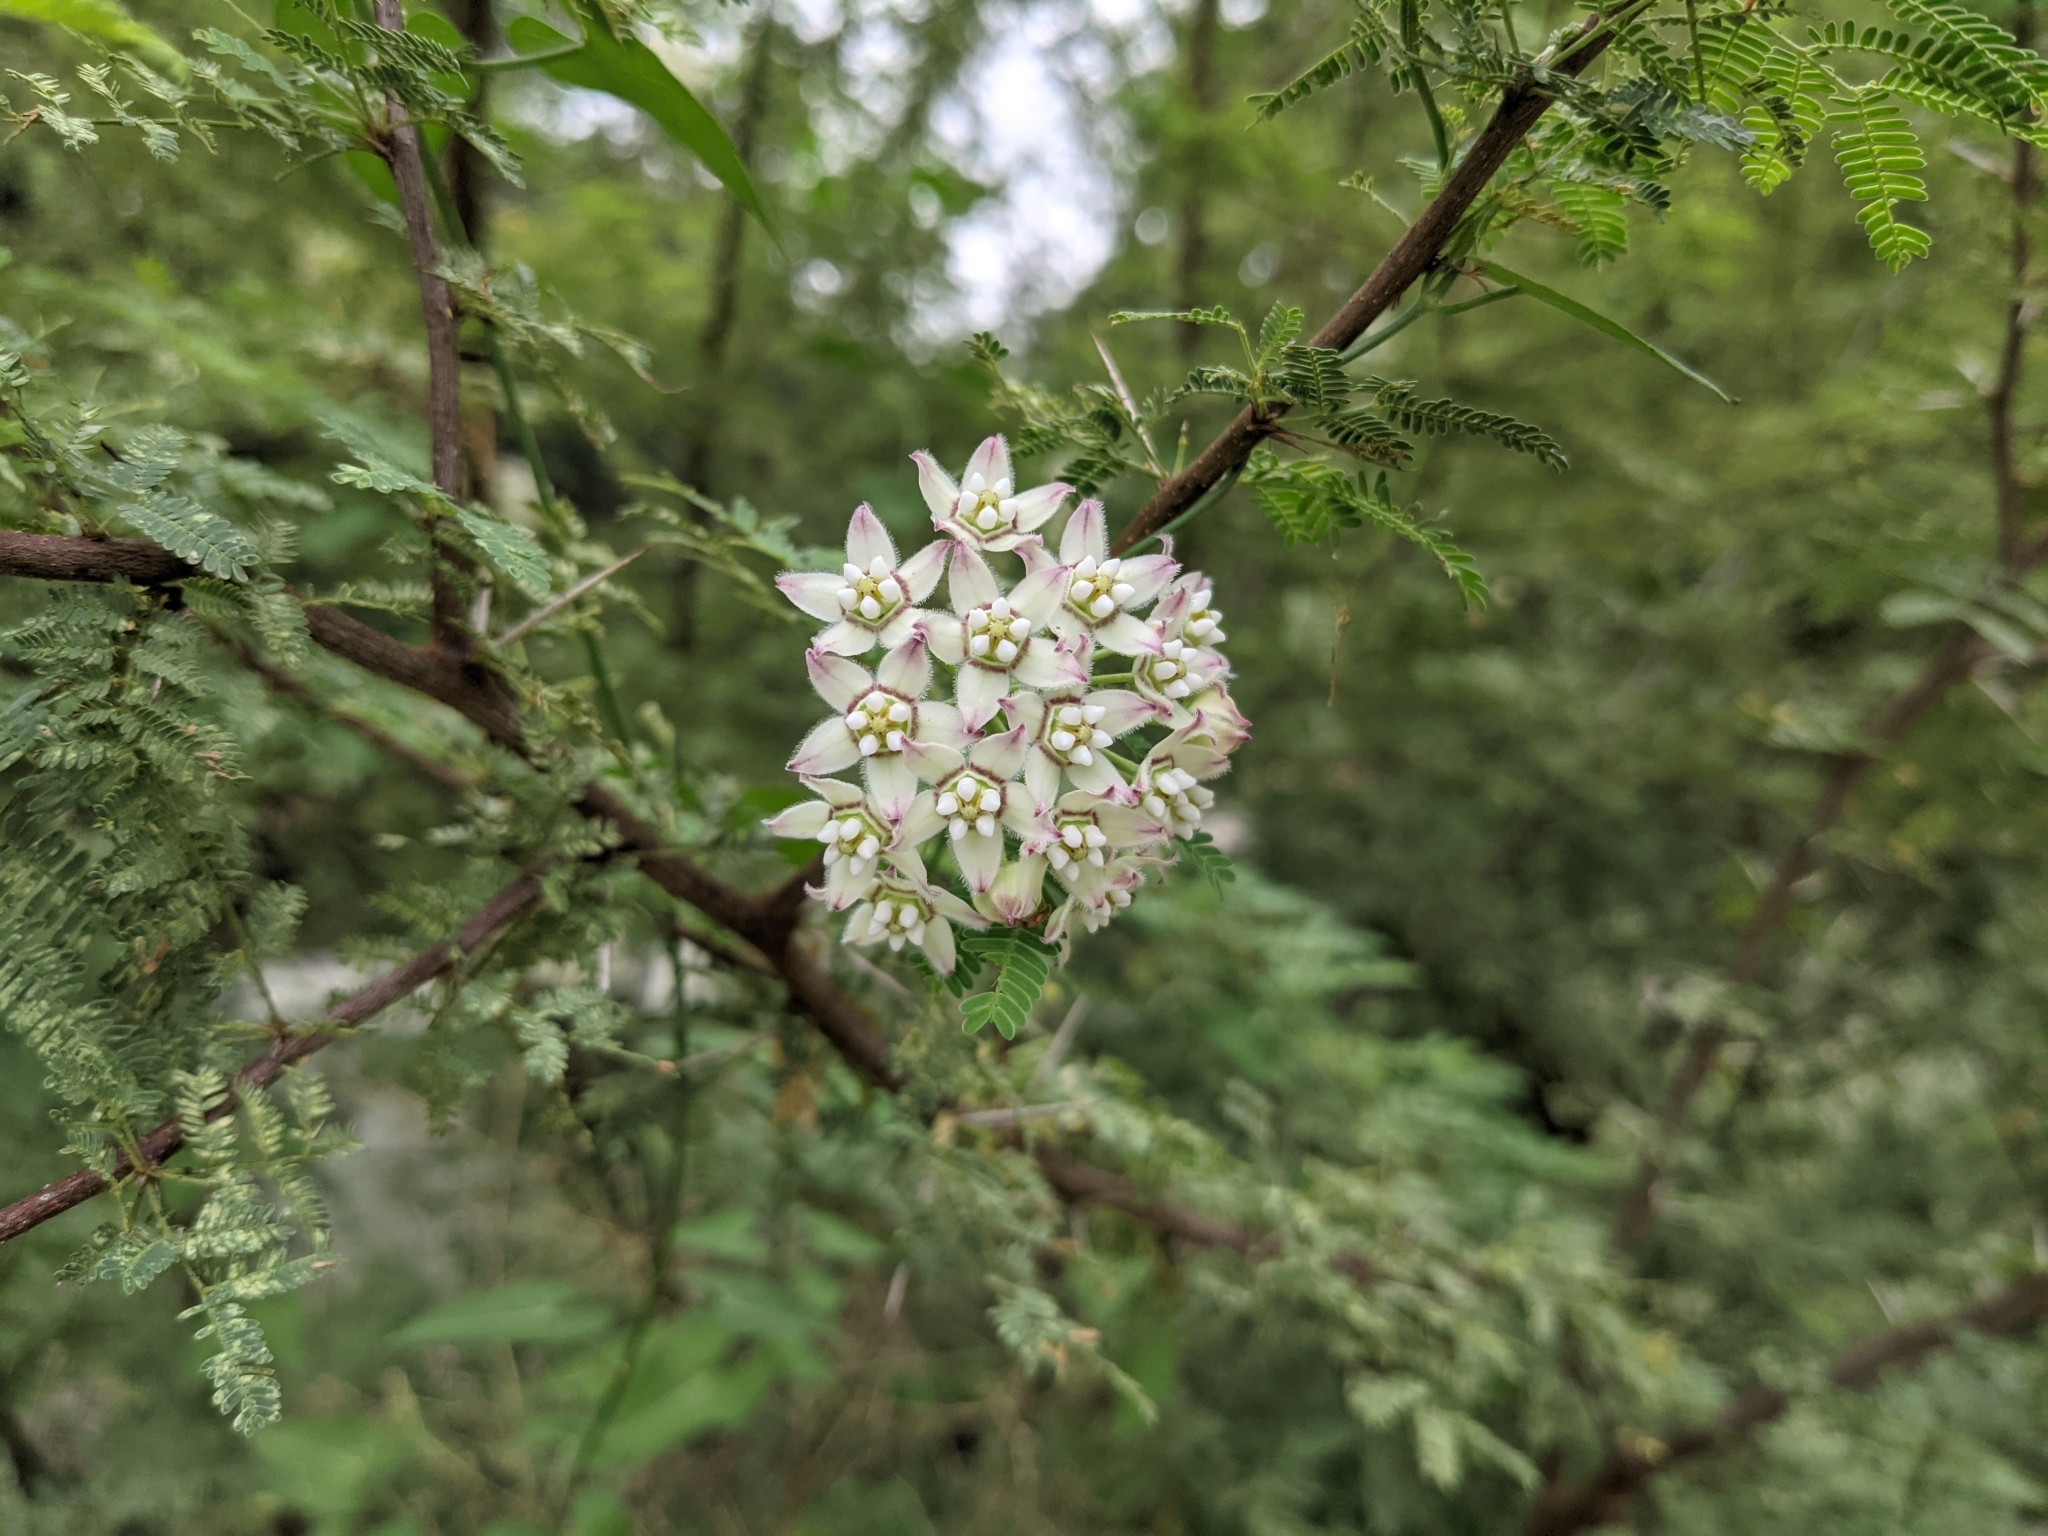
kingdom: Plantae
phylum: Tracheophyta
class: Magnoliopsida
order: Gentianales
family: Apocynaceae
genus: Funastrum
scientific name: Funastrum cynanchoides
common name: Climbing-milkweed
